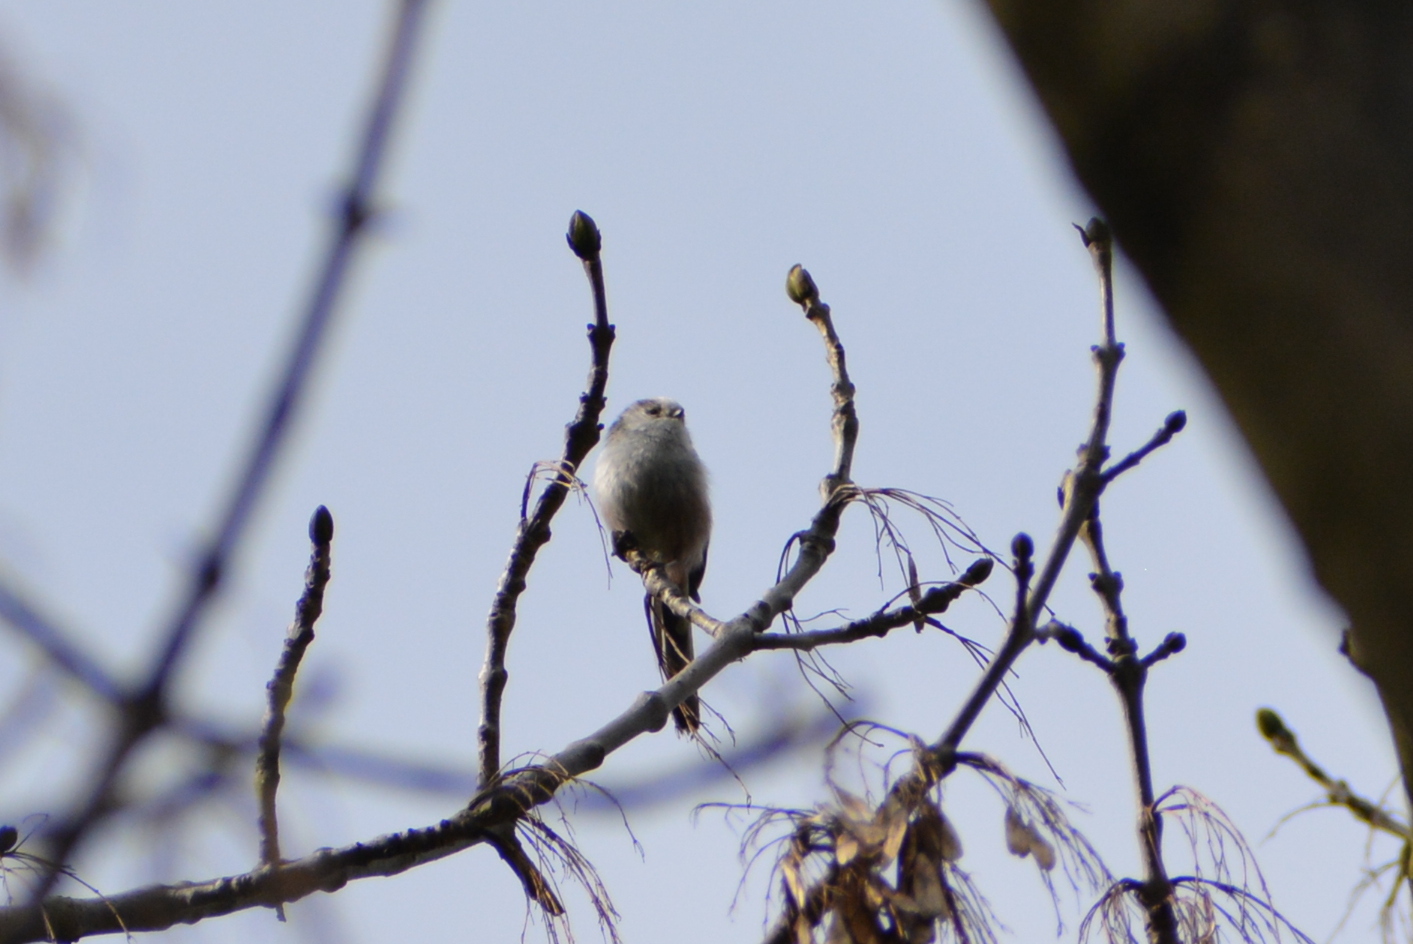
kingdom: Animalia
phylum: Chordata
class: Aves
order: Passeriformes
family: Aegithalidae
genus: Aegithalos
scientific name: Aegithalos caudatus
